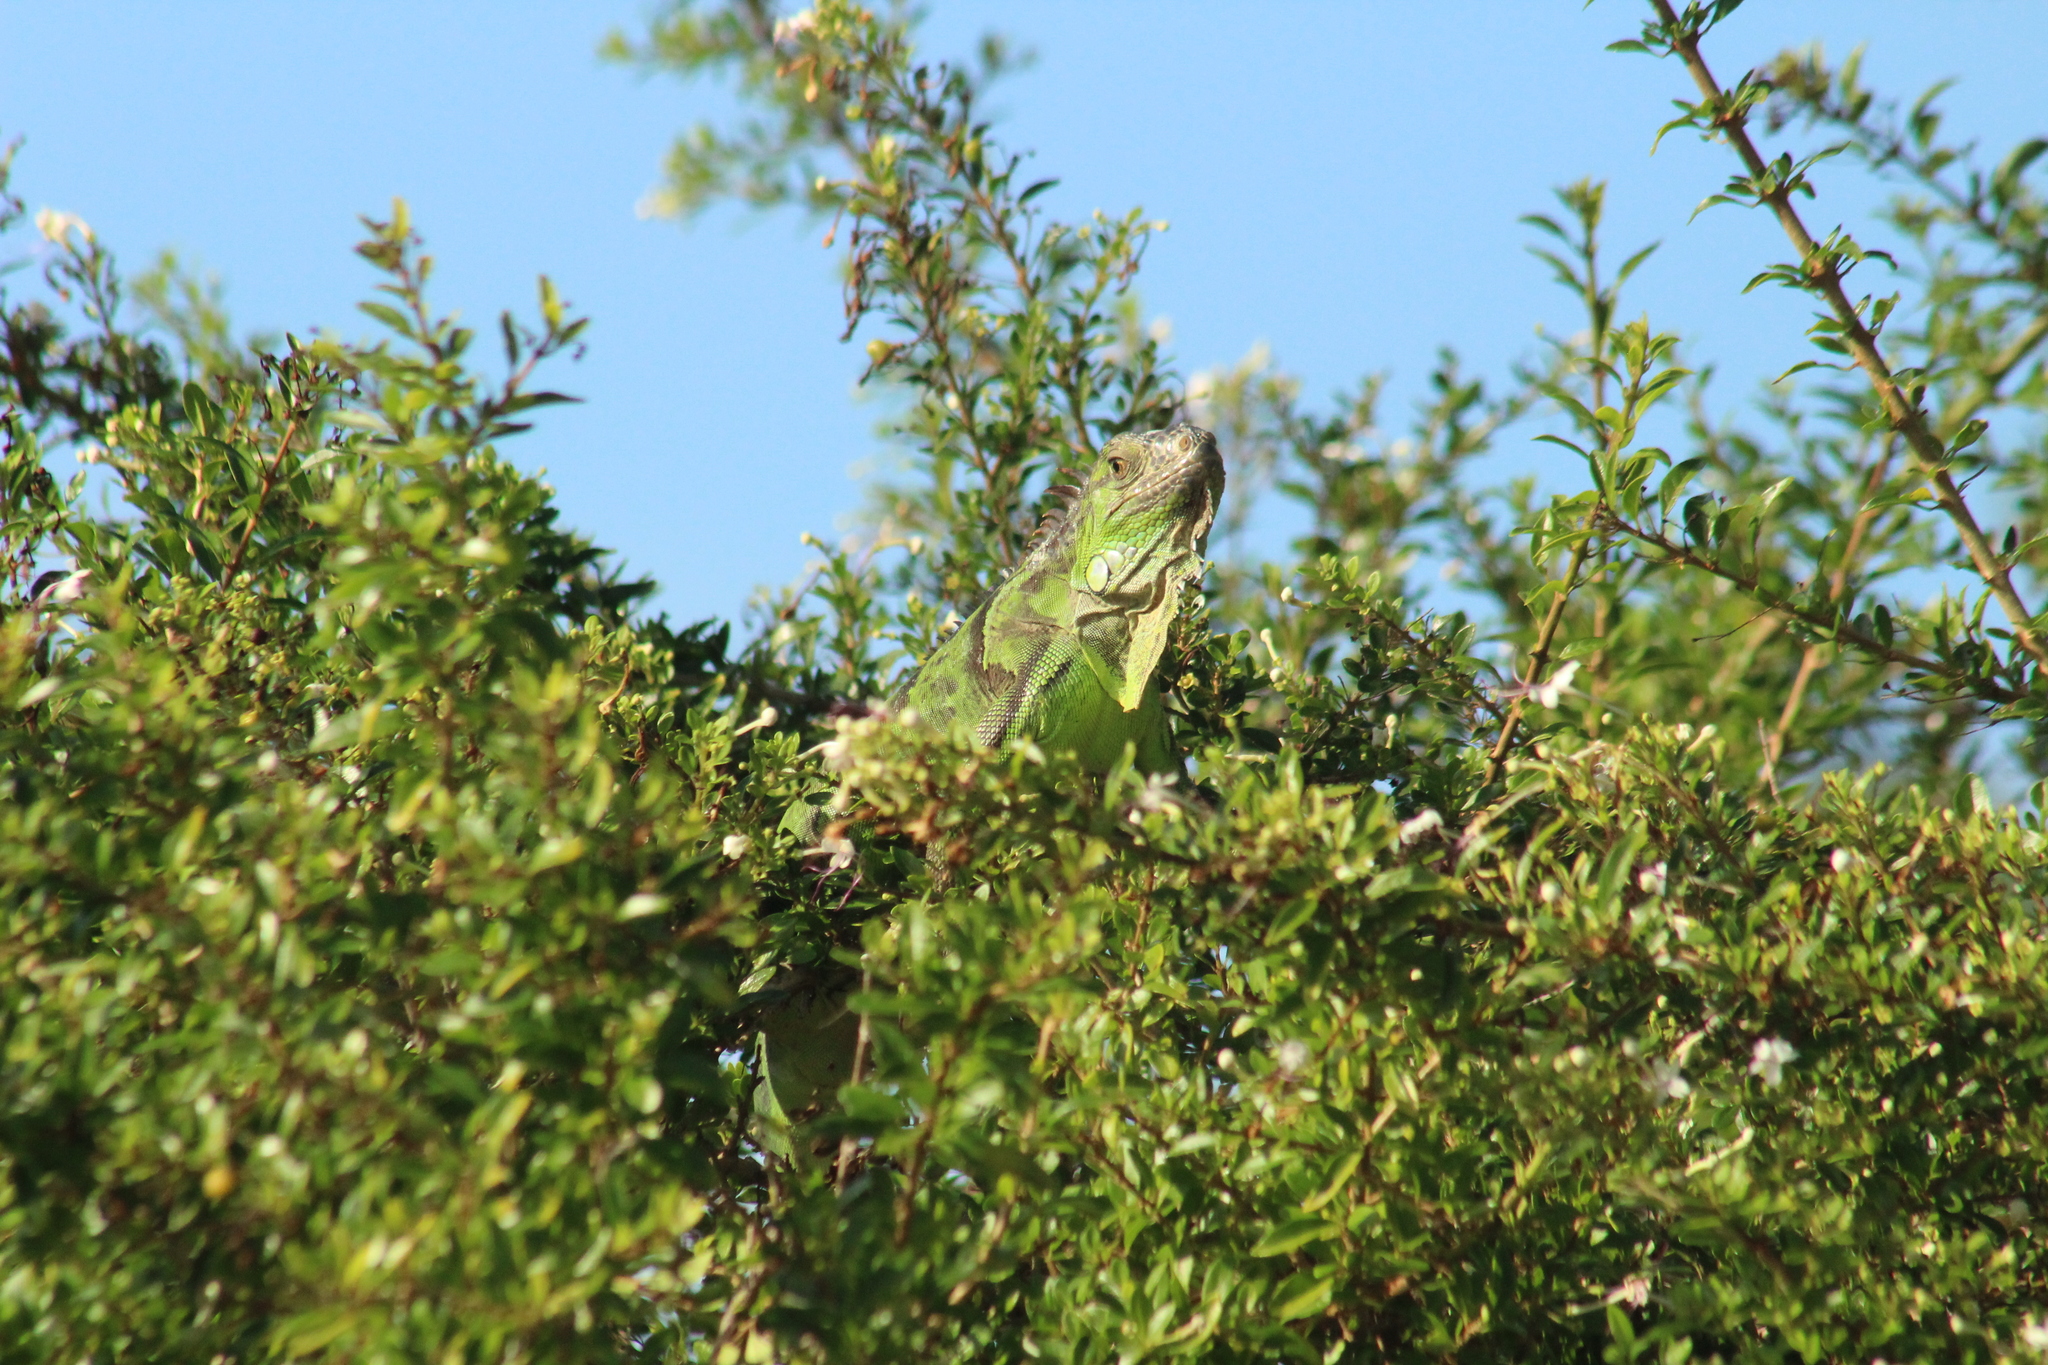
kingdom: Animalia
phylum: Chordata
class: Squamata
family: Iguanidae
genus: Iguana
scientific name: Iguana iguana
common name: Green iguana
